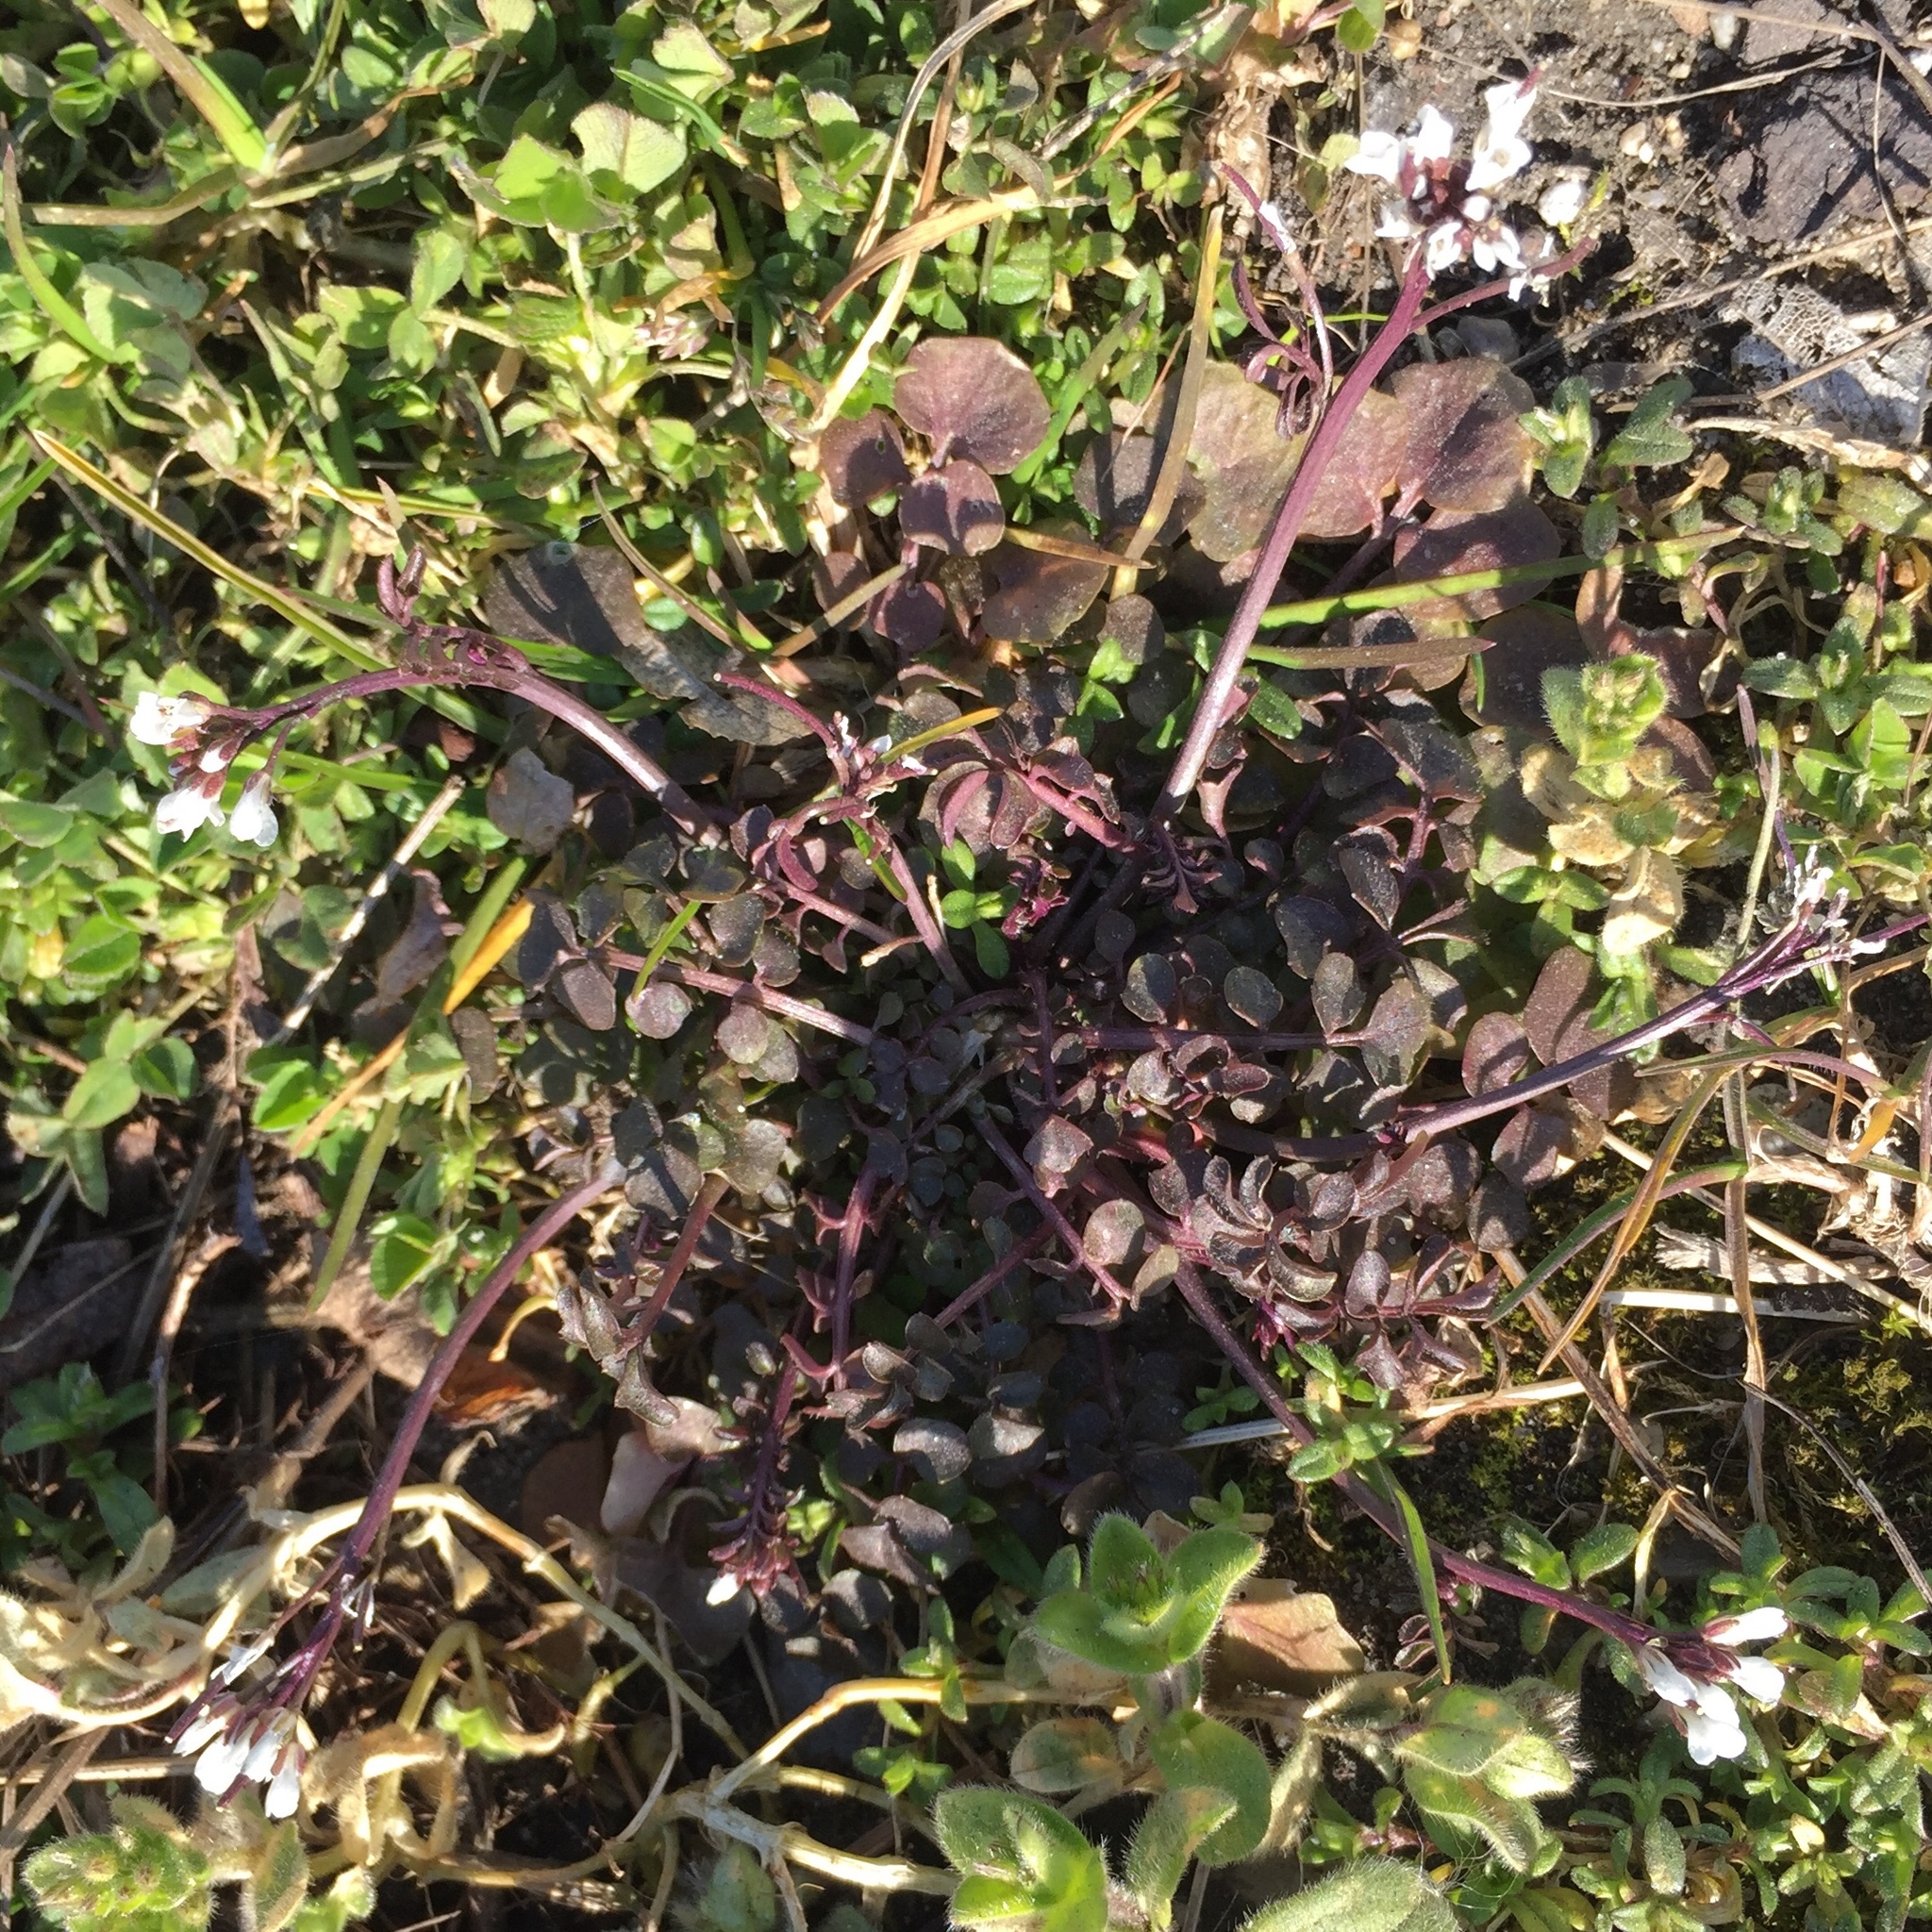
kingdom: Plantae
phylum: Tracheophyta
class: Magnoliopsida
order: Brassicales
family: Brassicaceae
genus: Cardamine
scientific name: Cardamine hirsuta
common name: Hairy bittercress
